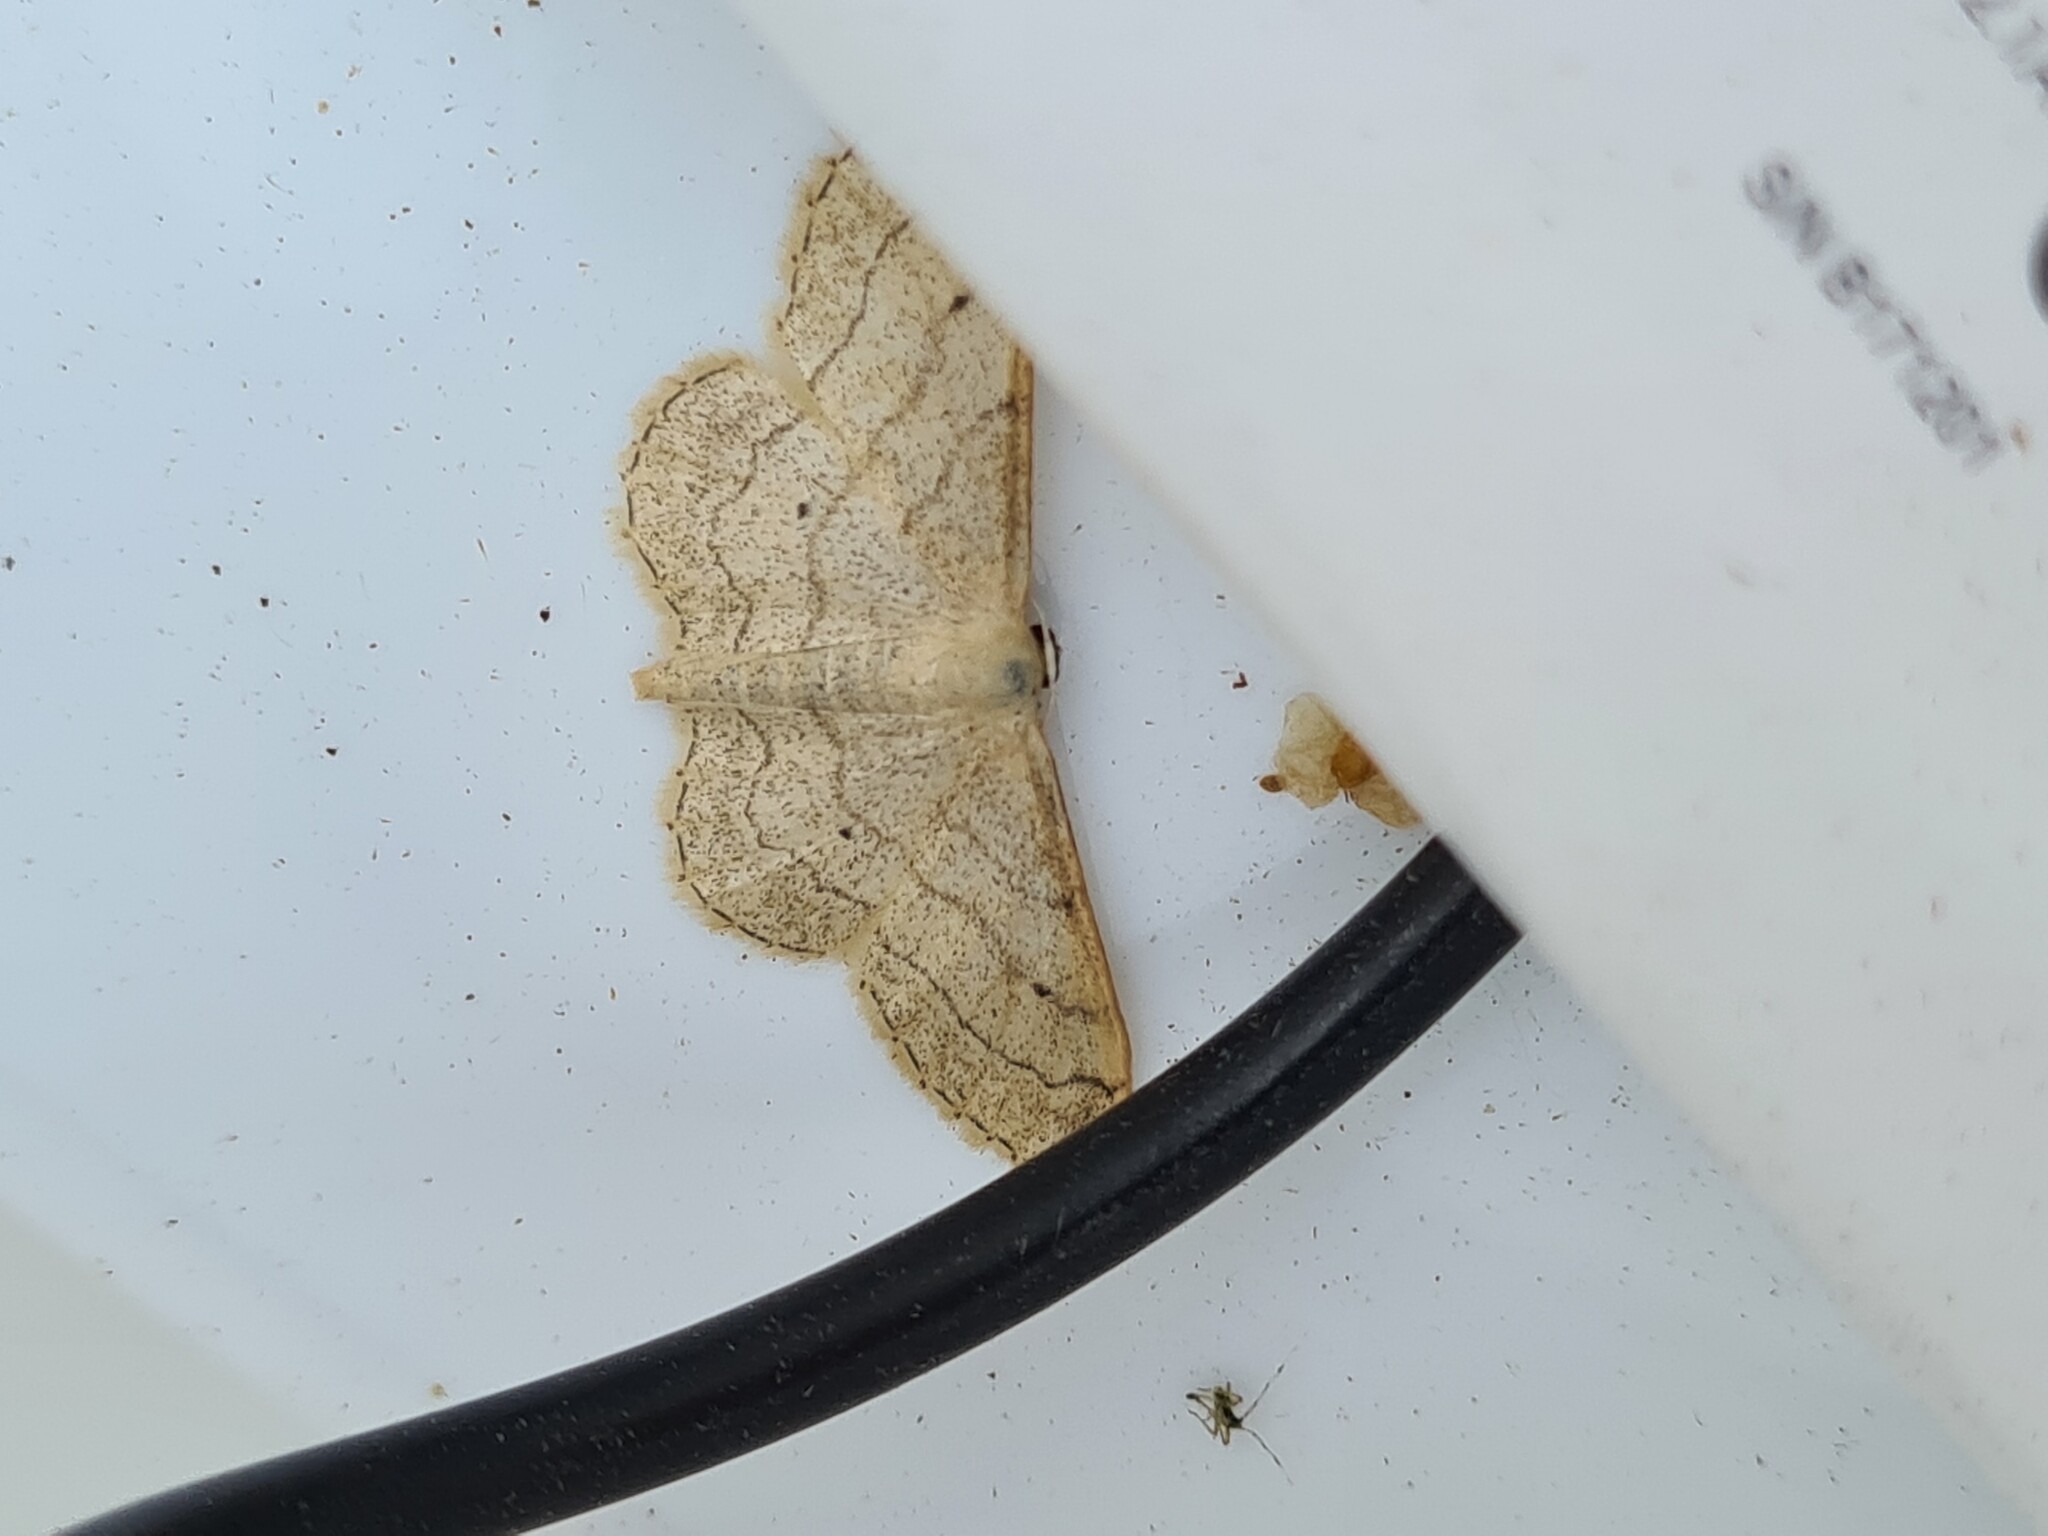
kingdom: Animalia
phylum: Arthropoda
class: Insecta
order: Lepidoptera
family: Geometridae
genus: Idaea
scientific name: Idaea aversata
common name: Riband wave
